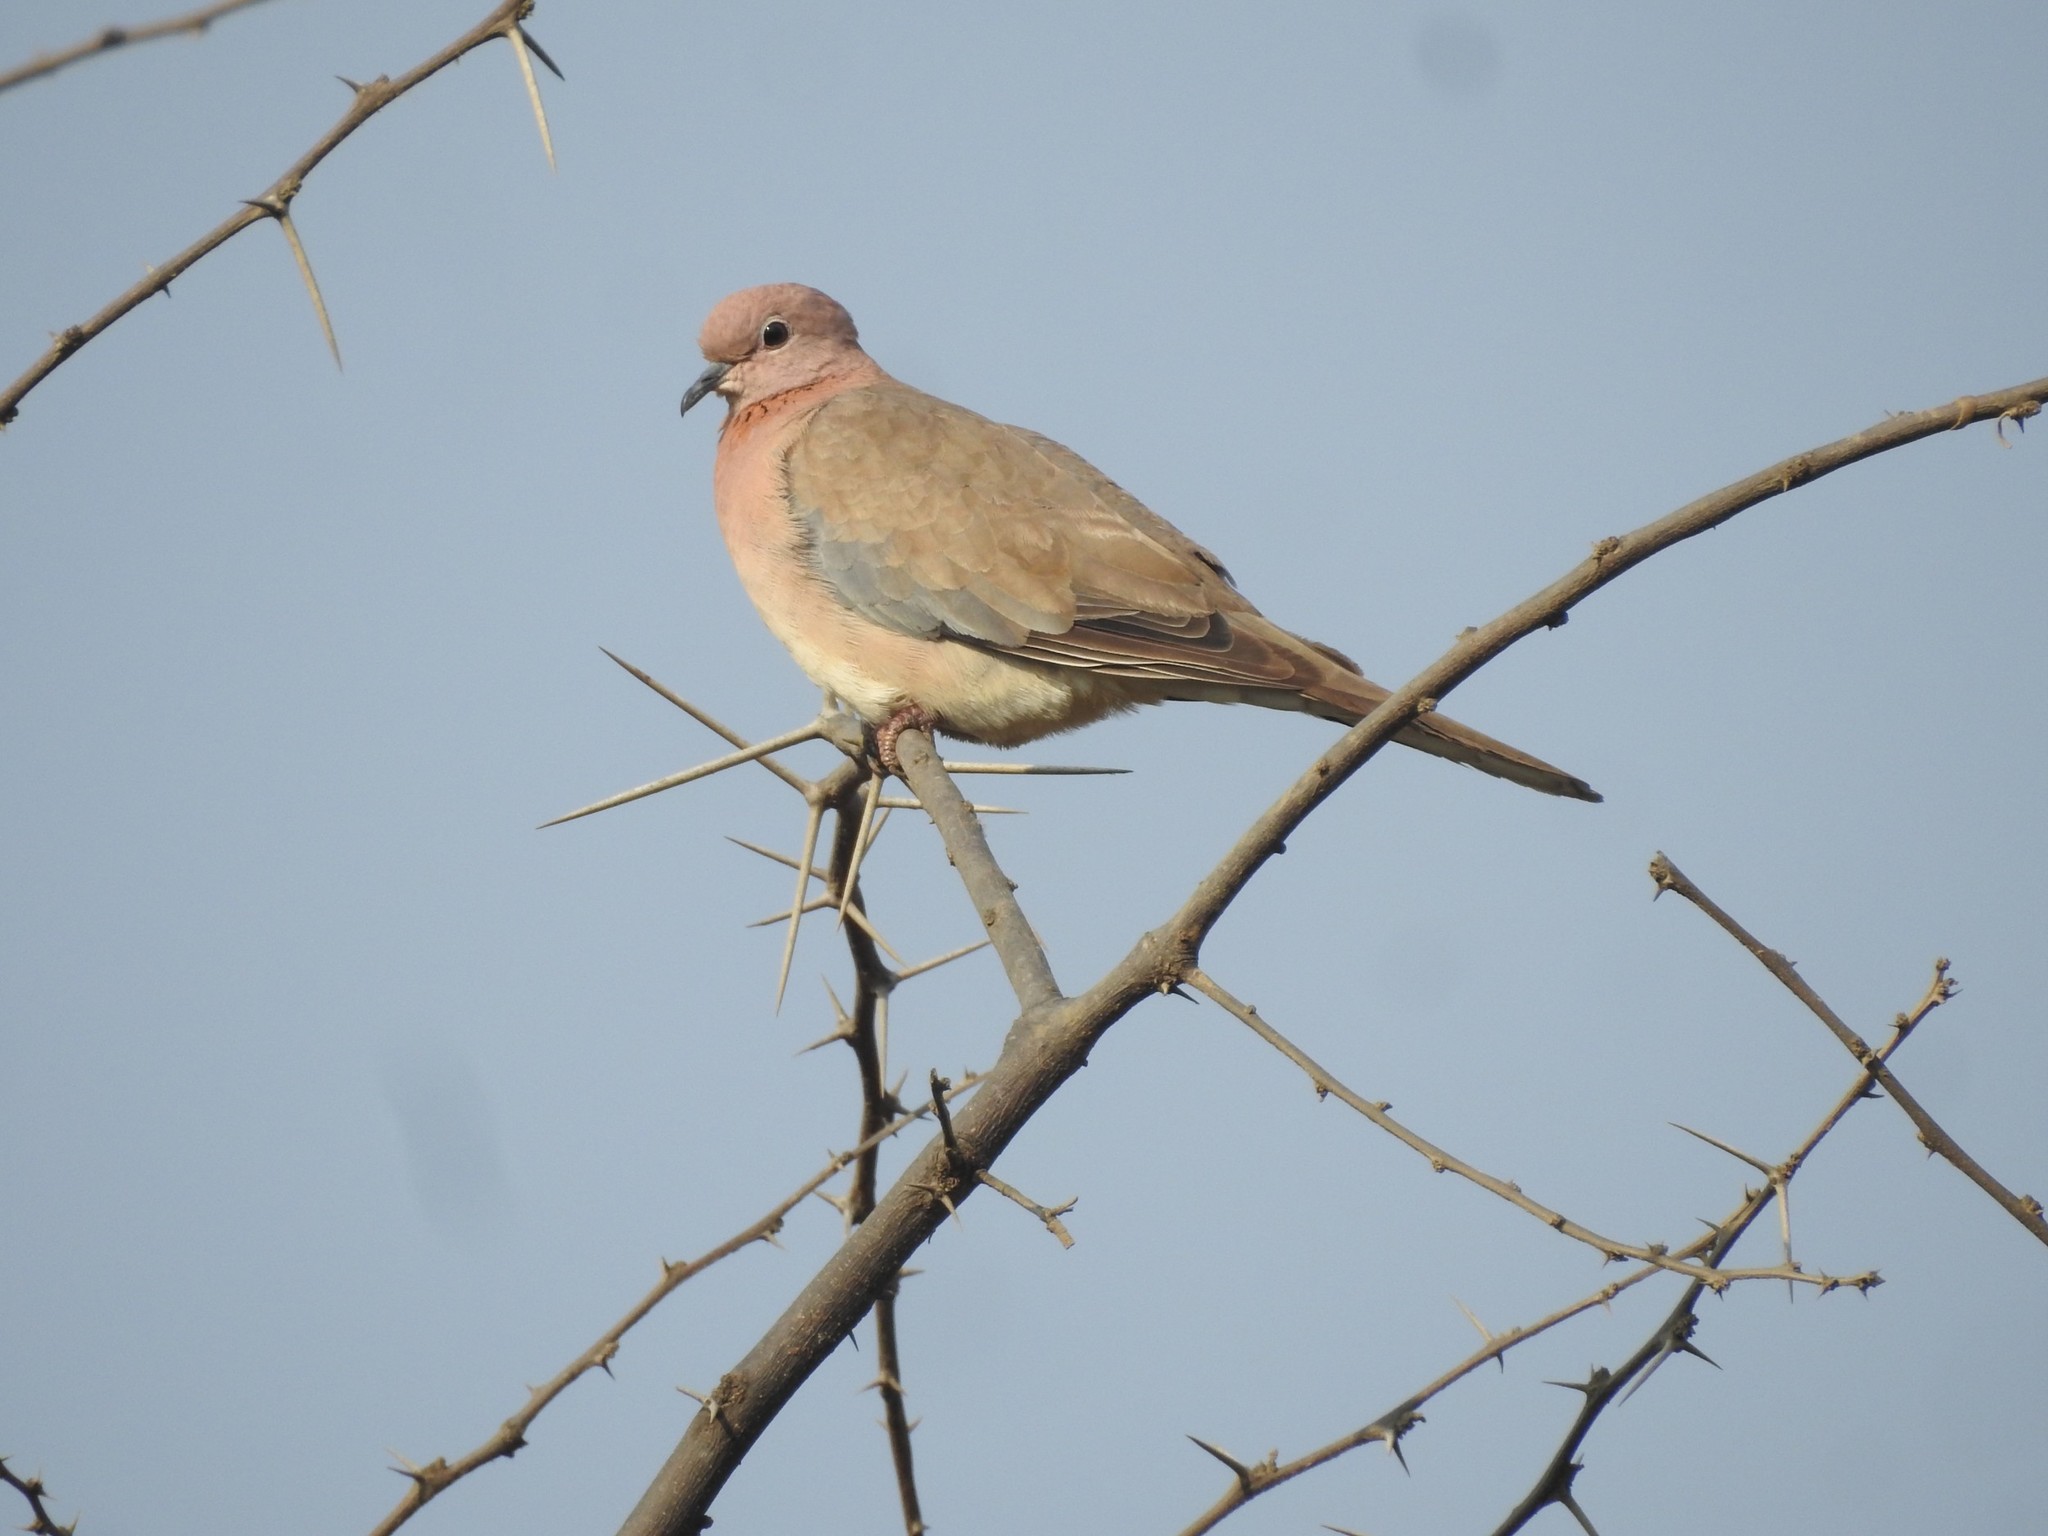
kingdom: Animalia
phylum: Chordata
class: Aves
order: Columbiformes
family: Columbidae
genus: Spilopelia
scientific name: Spilopelia senegalensis
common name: Laughing dove
